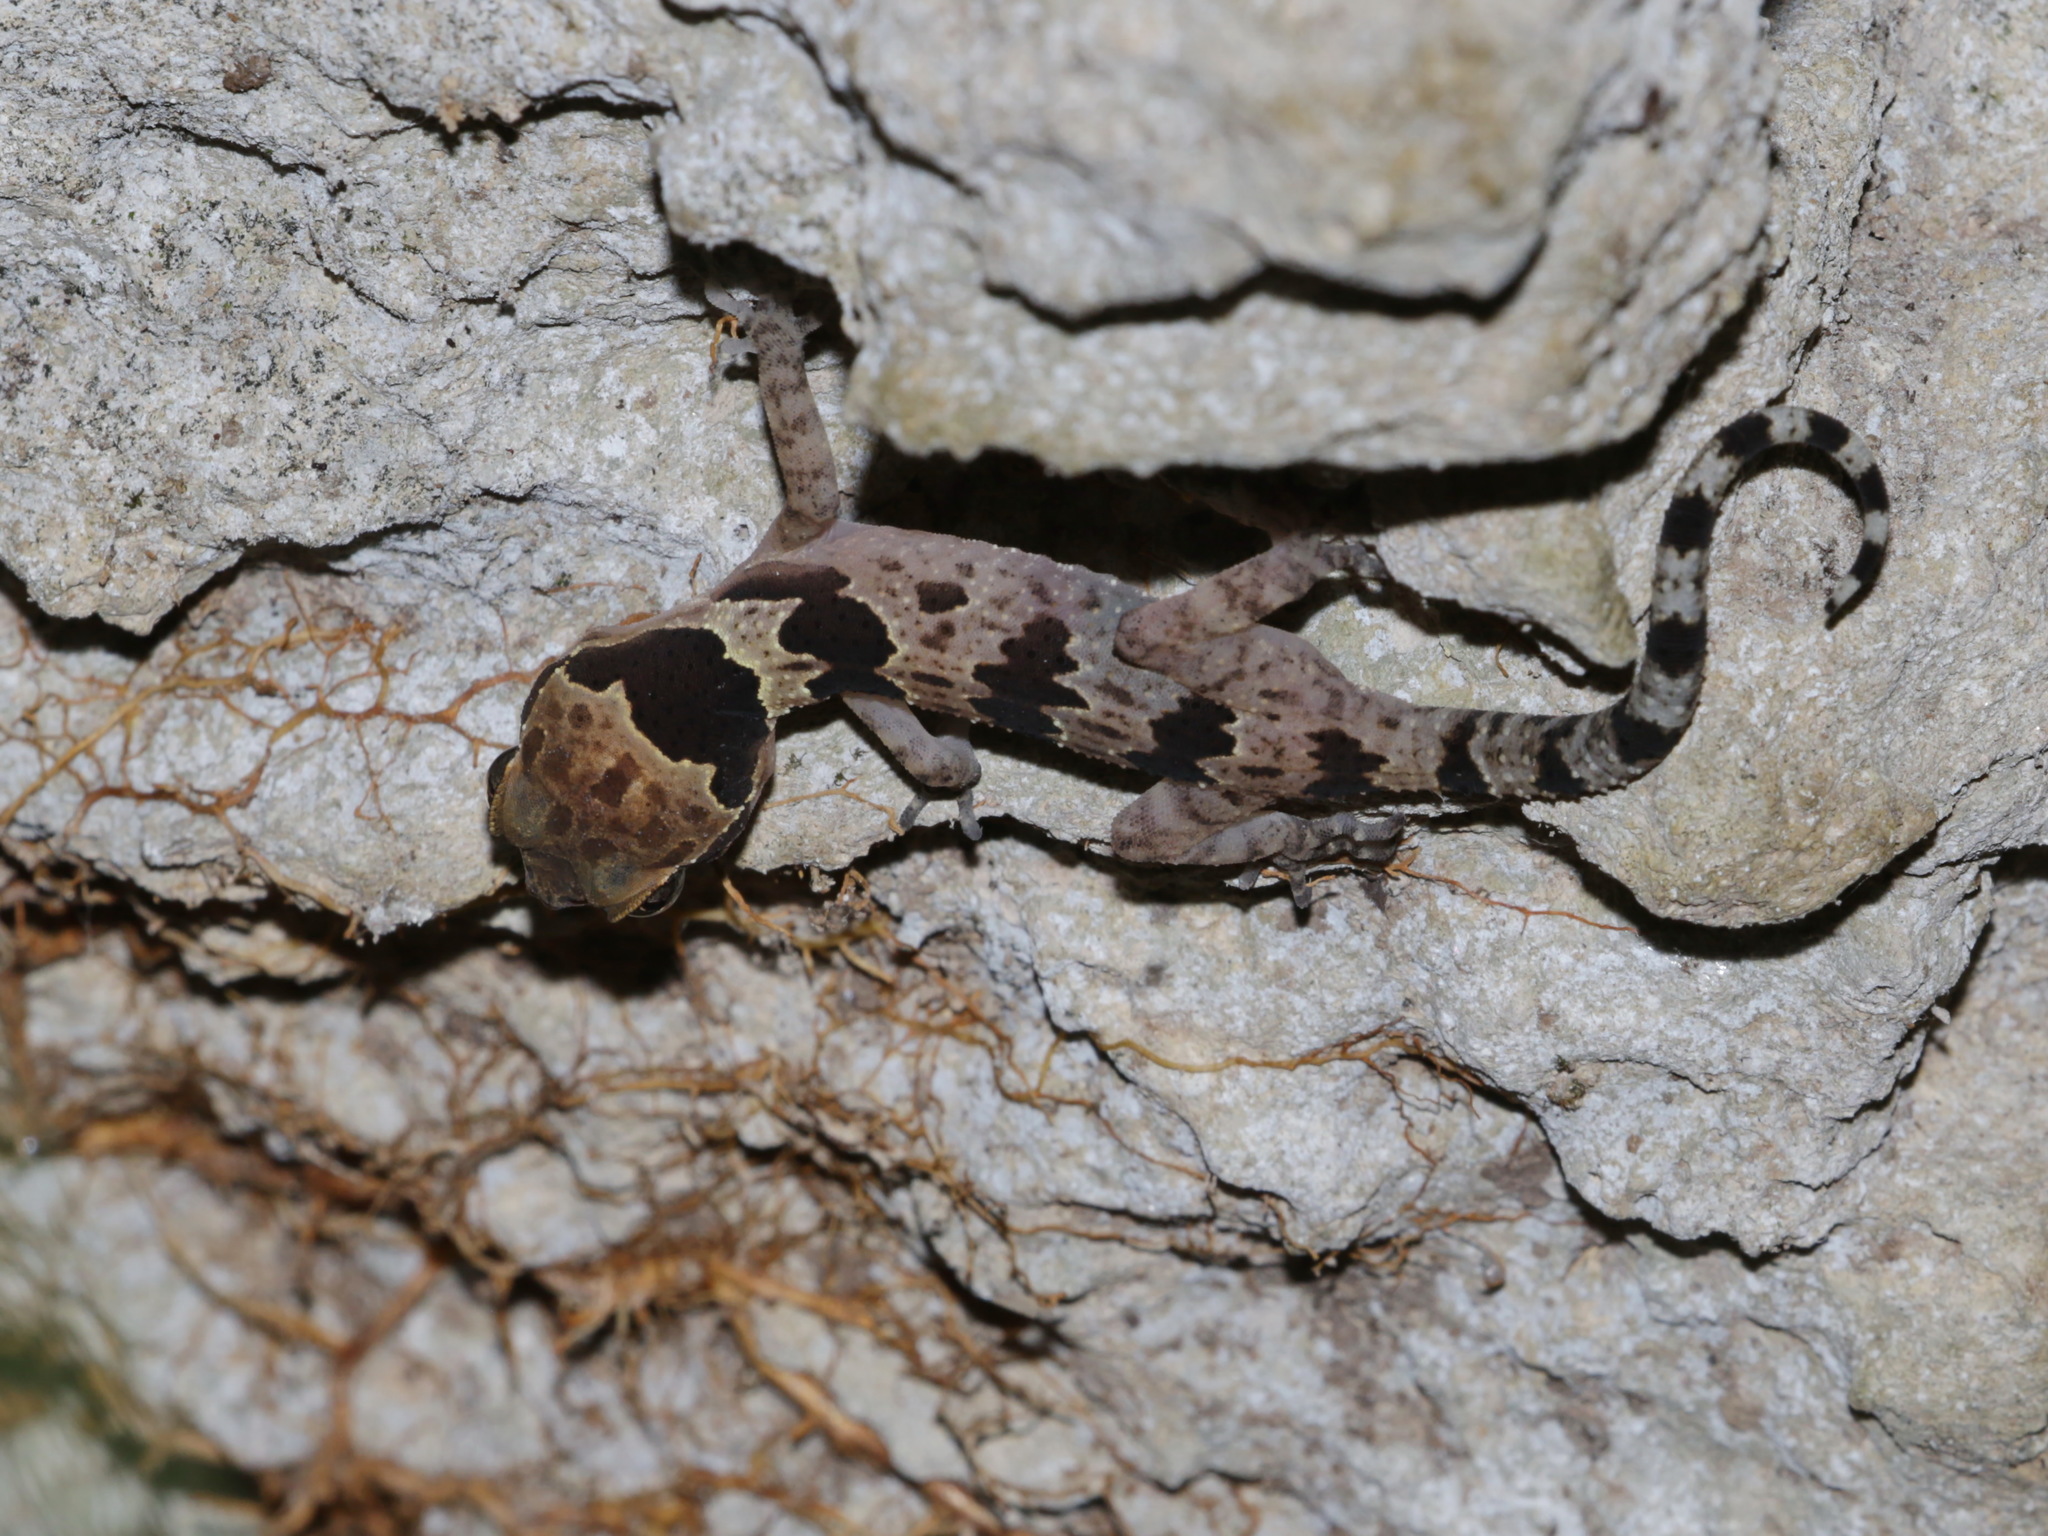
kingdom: Animalia
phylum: Chordata
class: Squamata
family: Gekkonidae
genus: Cyrtodactylus
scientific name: Cyrtodactylus papilionoides
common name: Butterfly forest gecko
